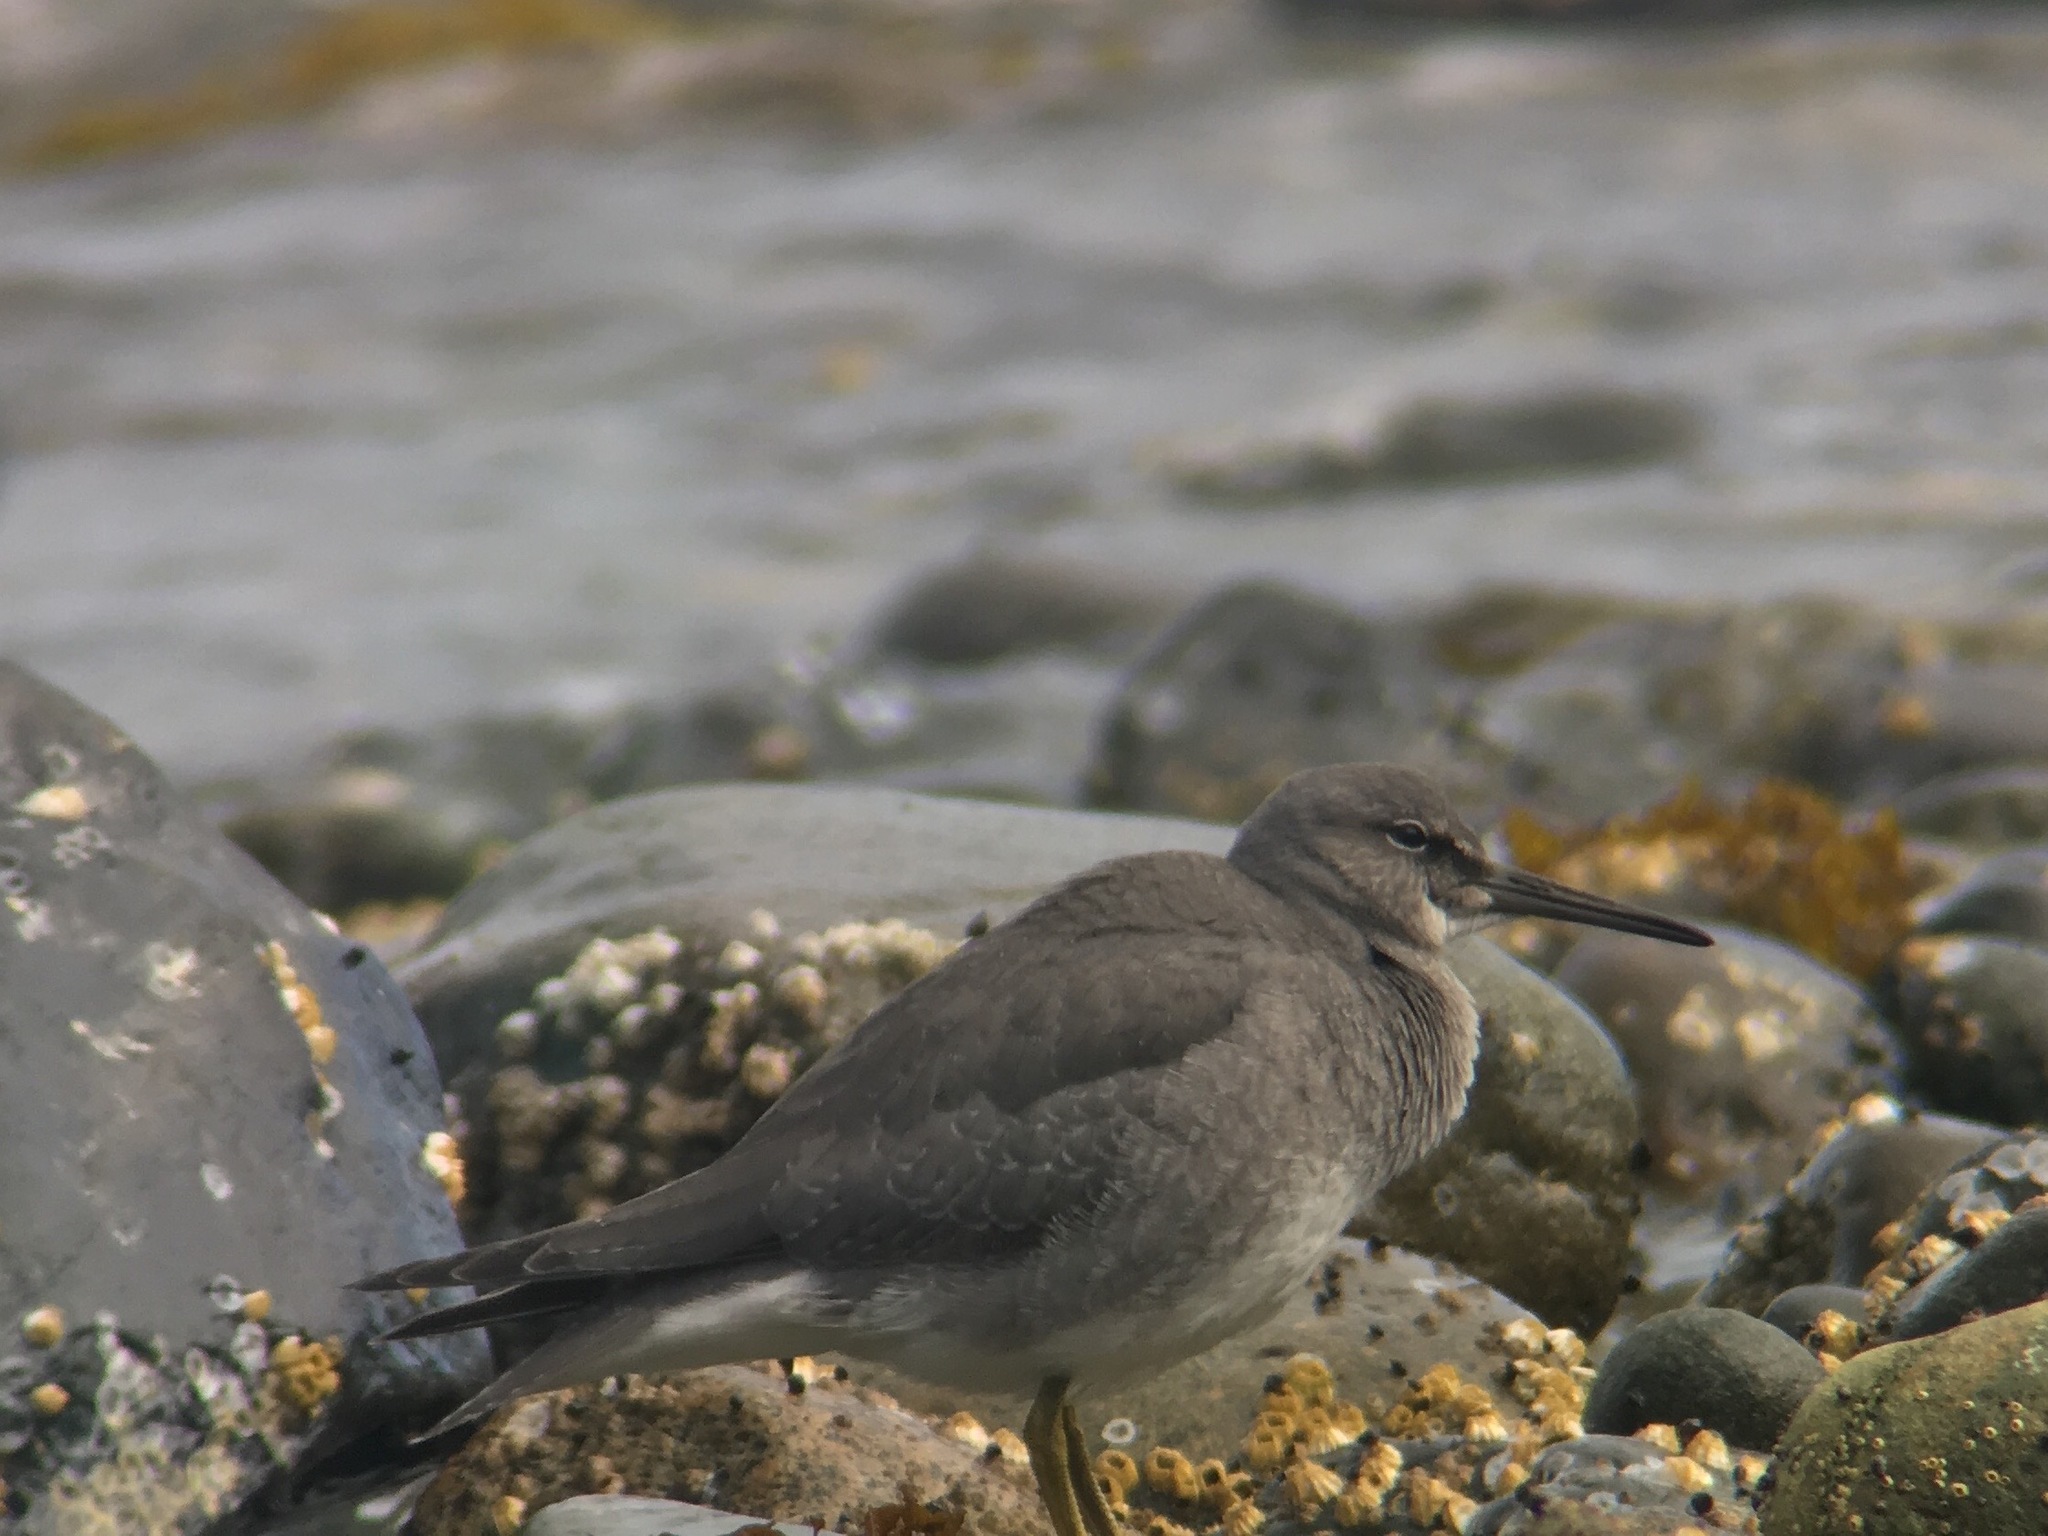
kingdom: Animalia
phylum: Chordata
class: Aves
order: Charadriiformes
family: Scolopacidae
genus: Tringa
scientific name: Tringa incana
